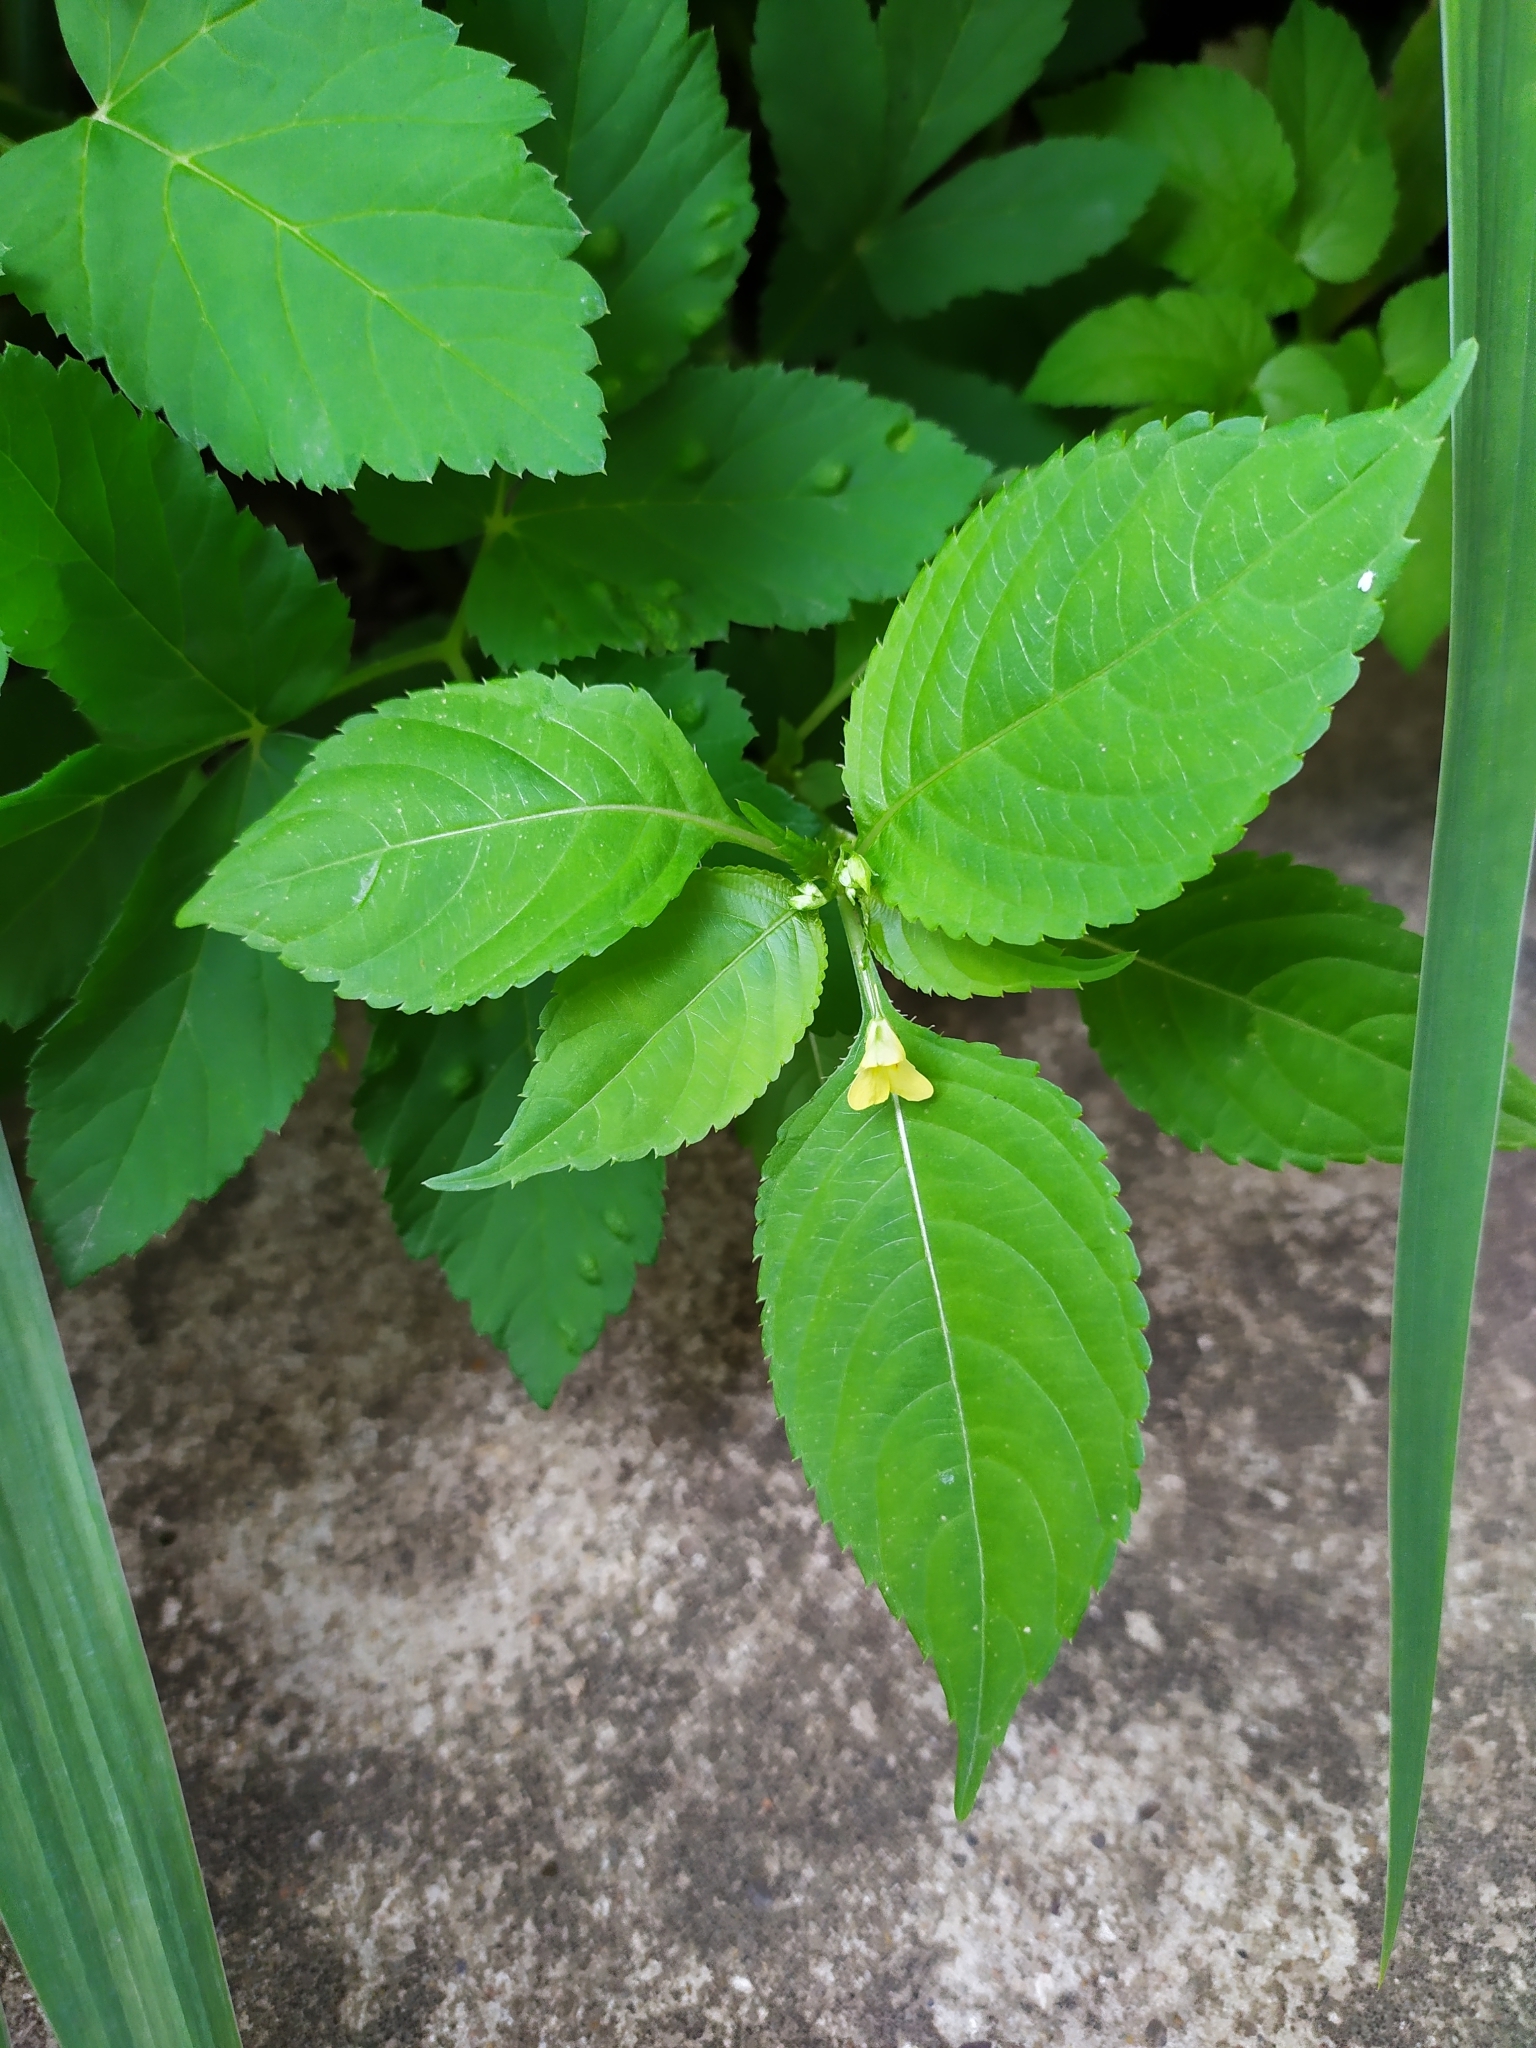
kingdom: Plantae
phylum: Tracheophyta
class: Magnoliopsida
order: Ericales
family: Balsaminaceae
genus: Impatiens
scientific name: Impatiens parviflora
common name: Small balsam
